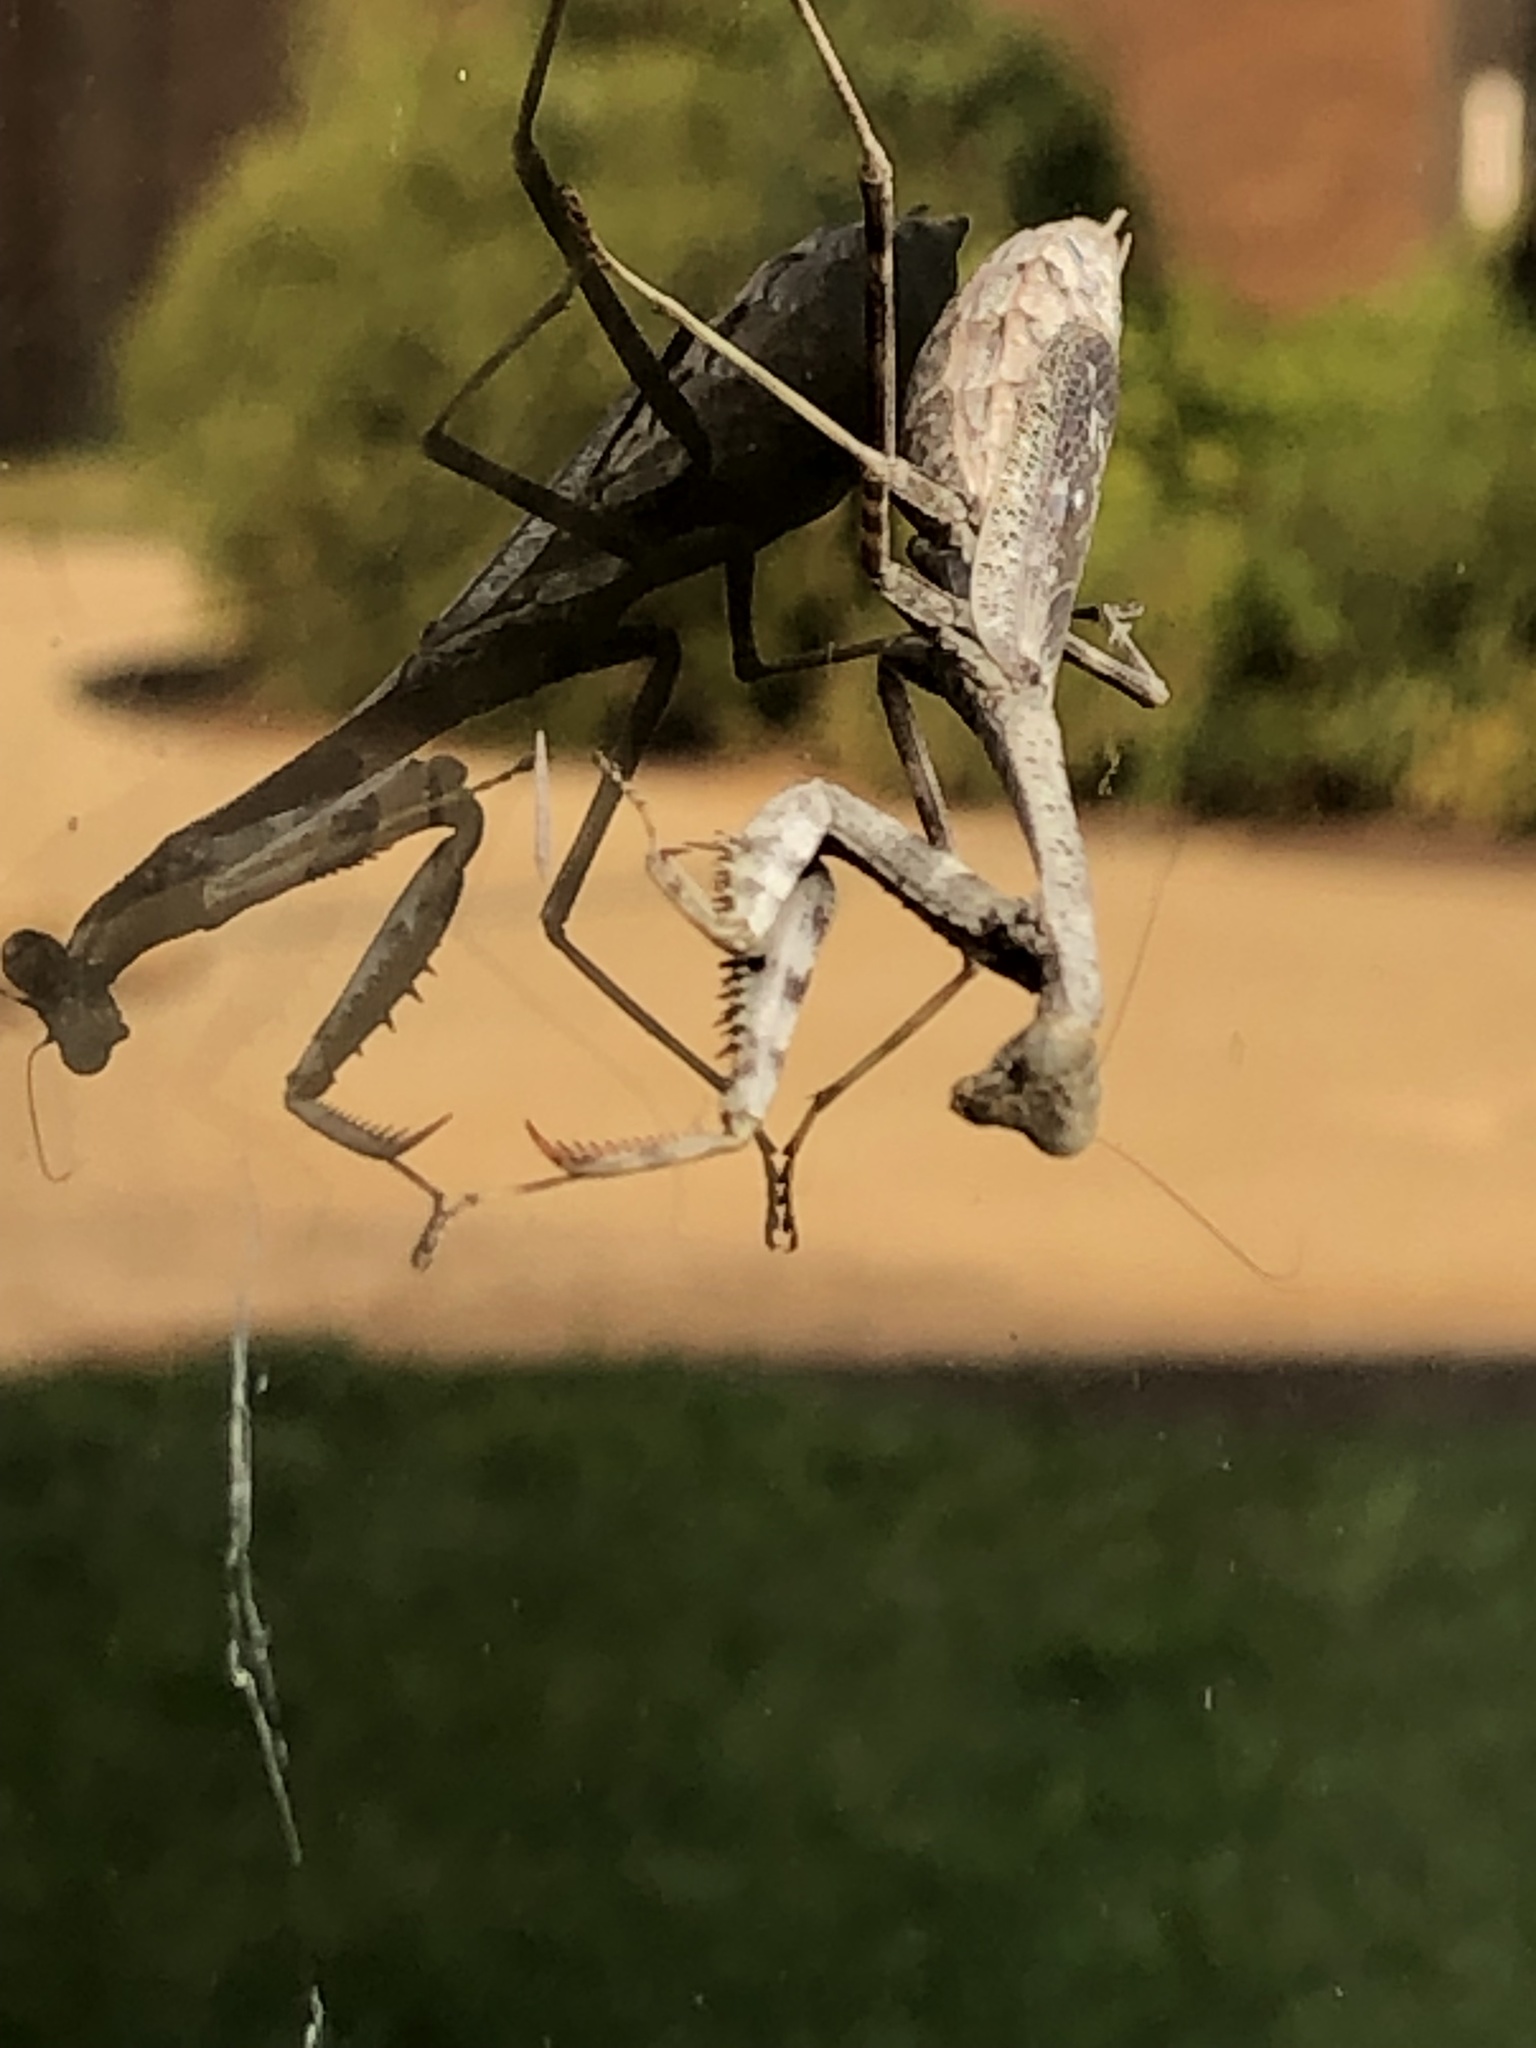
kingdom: Animalia
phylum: Arthropoda
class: Insecta
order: Mantodea
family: Mantidae
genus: Stagmomantis
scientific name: Stagmomantis carolina
